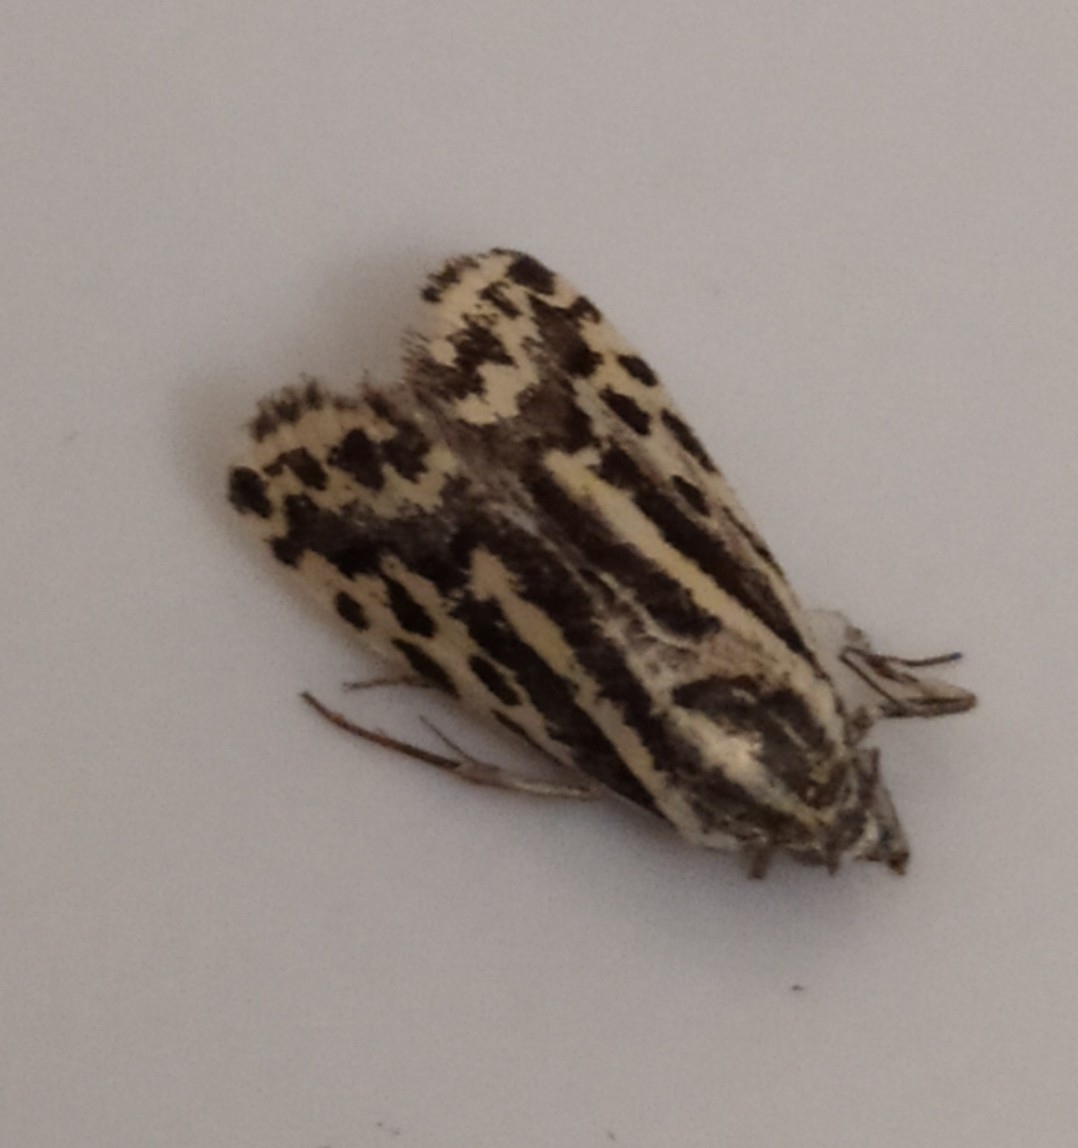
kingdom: Animalia
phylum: Arthropoda
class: Insecta
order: Lepidoptera
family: Noctuidae
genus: Acontia
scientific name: Acontia trabealis
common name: Spotted sulphur
